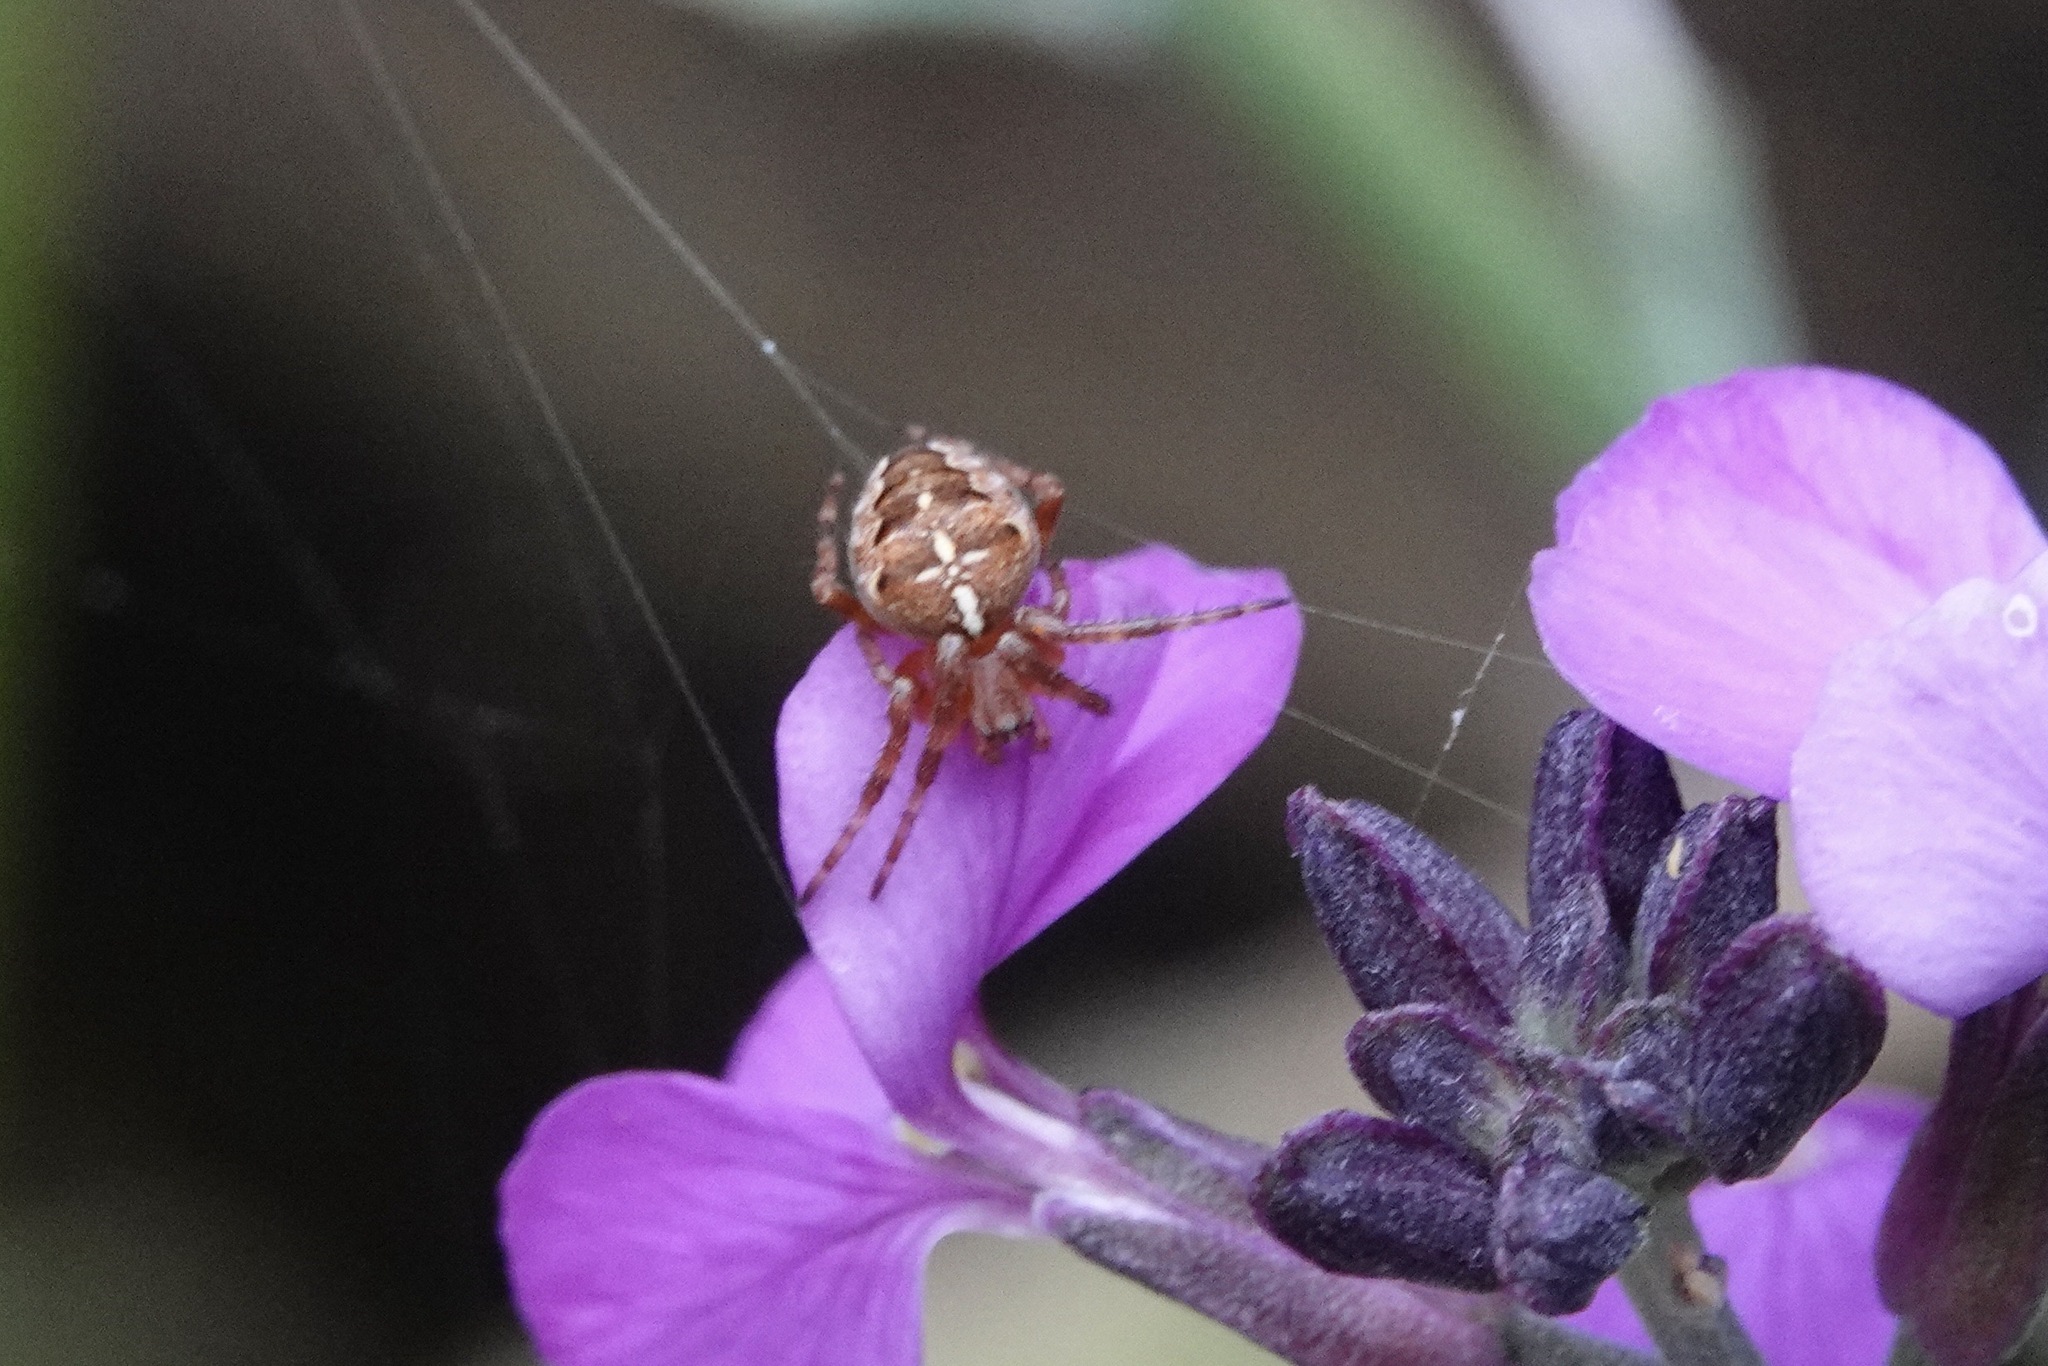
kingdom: Animalia
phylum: Arthropoda
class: Arachnida
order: Araneae
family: Araneidae
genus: Araneus
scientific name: Araneus diadematus
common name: Cross orbweaver
